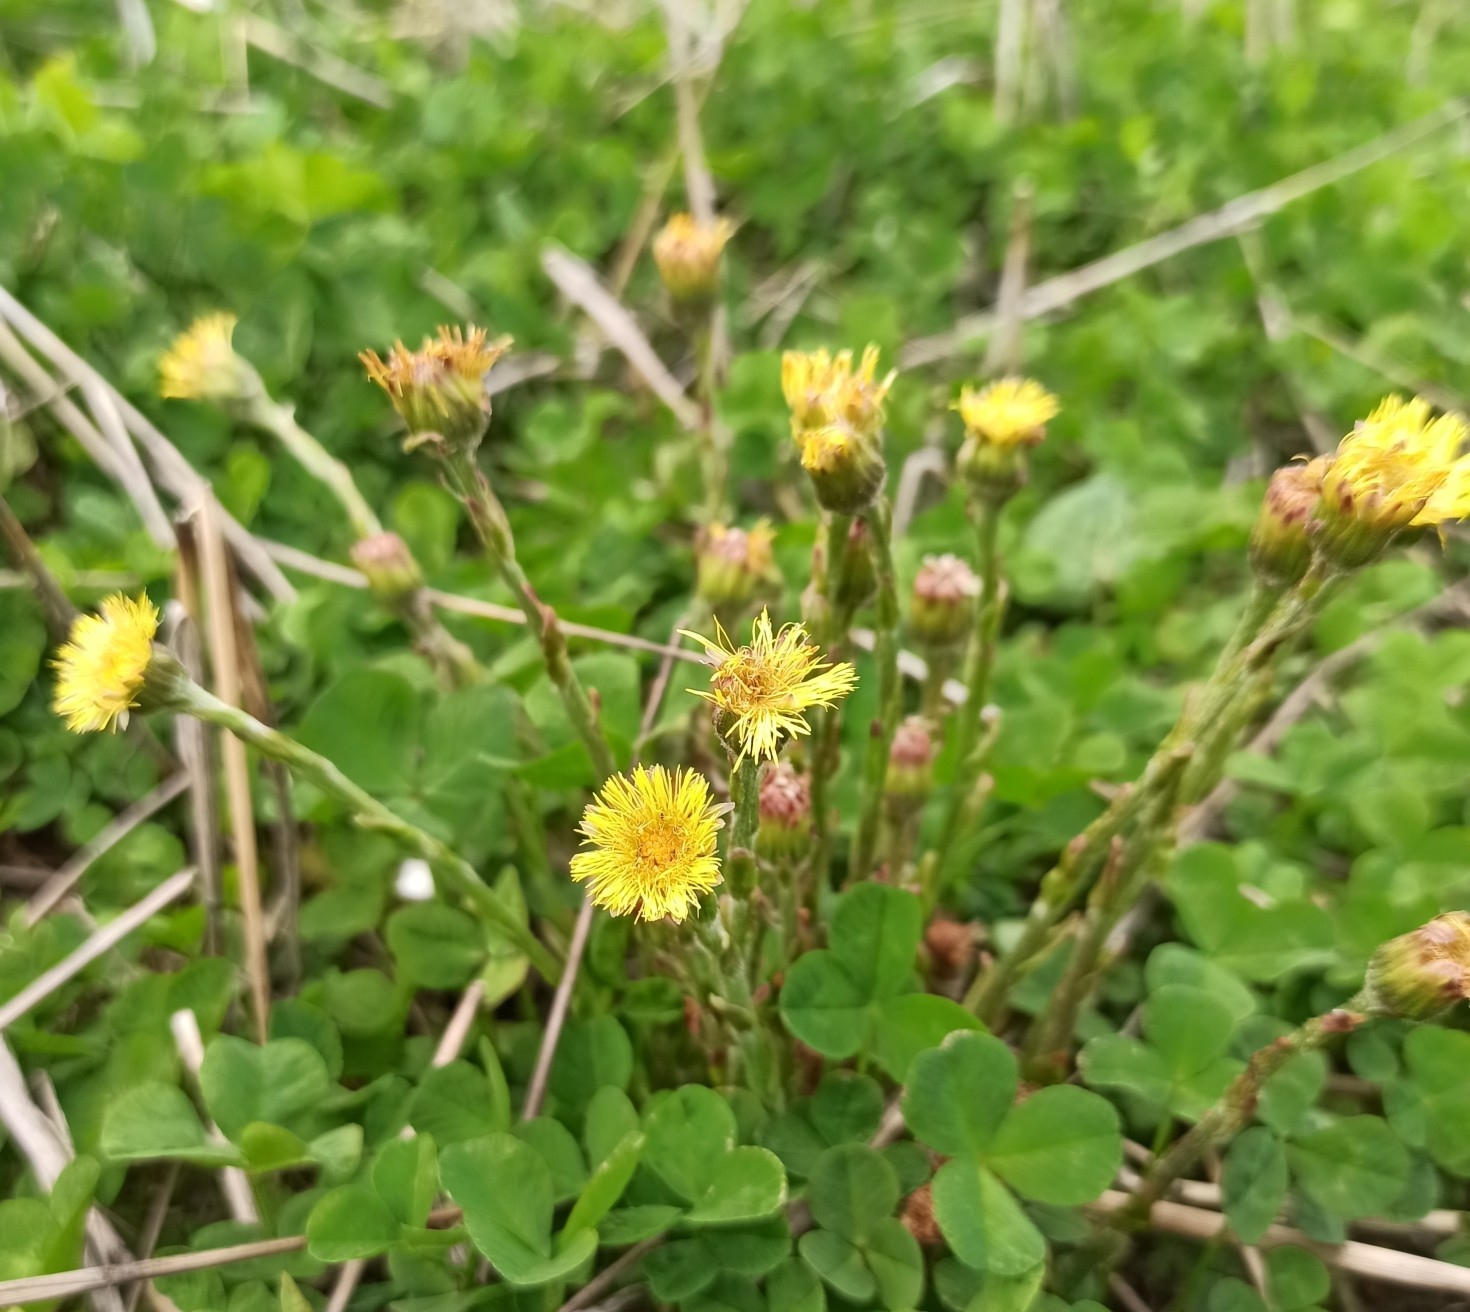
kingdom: Plantae
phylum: Tracheophyta
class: Magnoliopsida
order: Asterales
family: Asteraceae
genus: Tussilago
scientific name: Tussilago farfara
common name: Coltsfoot
